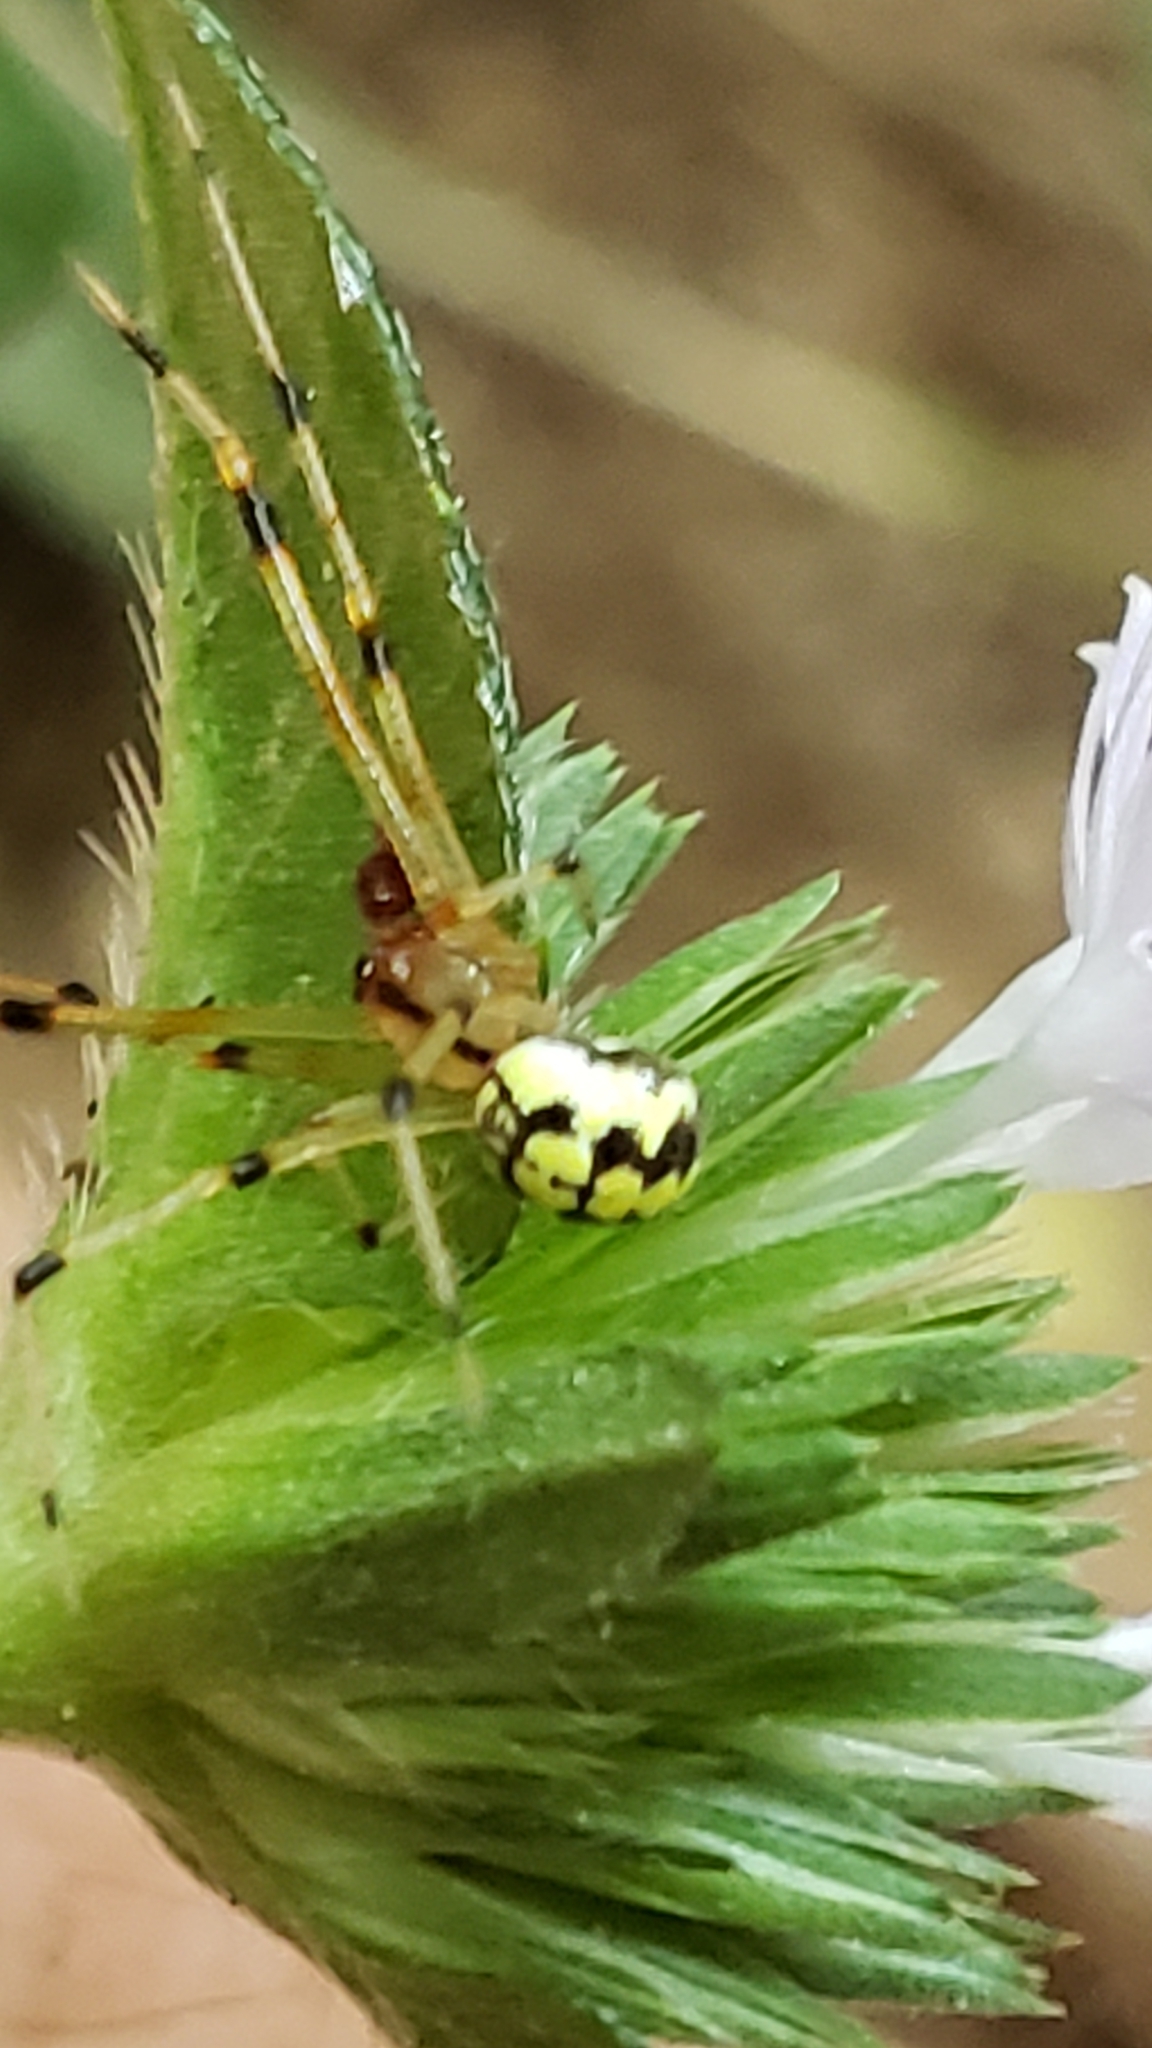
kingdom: Animalia
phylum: Arthropoda
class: Arachnida
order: Araneae
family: Theridiidae
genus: Phylloneta
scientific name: Phylloneta pictipes
